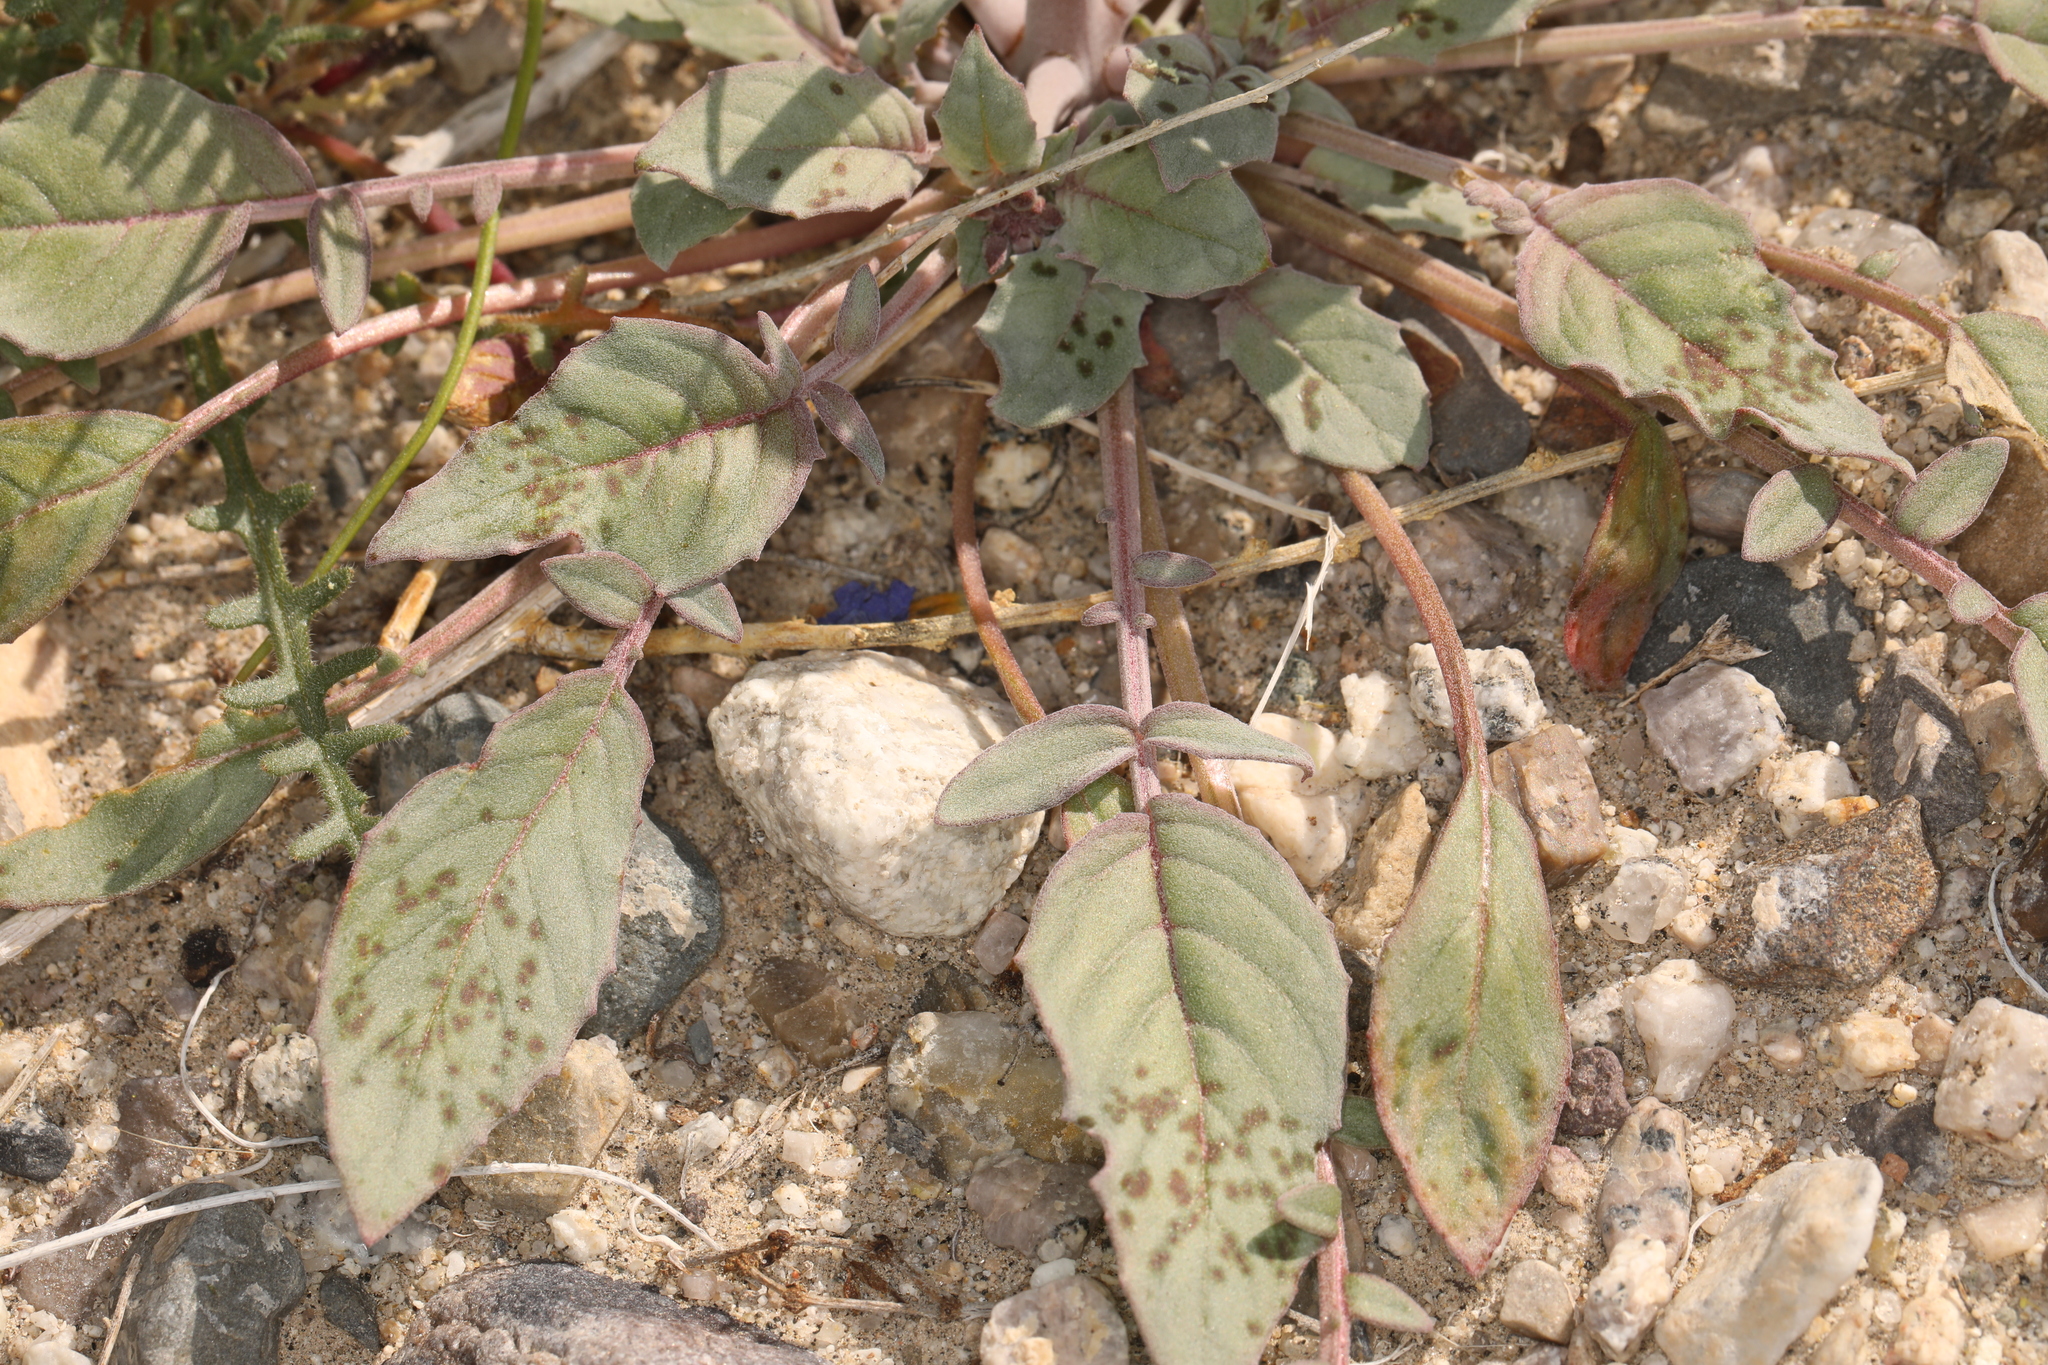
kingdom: Plantae
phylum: Tracheophyta
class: Magnoliopsida
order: Myrtales
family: Onagraceae
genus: Chylismia
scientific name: Chylismia claviformis
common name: Browneyes
